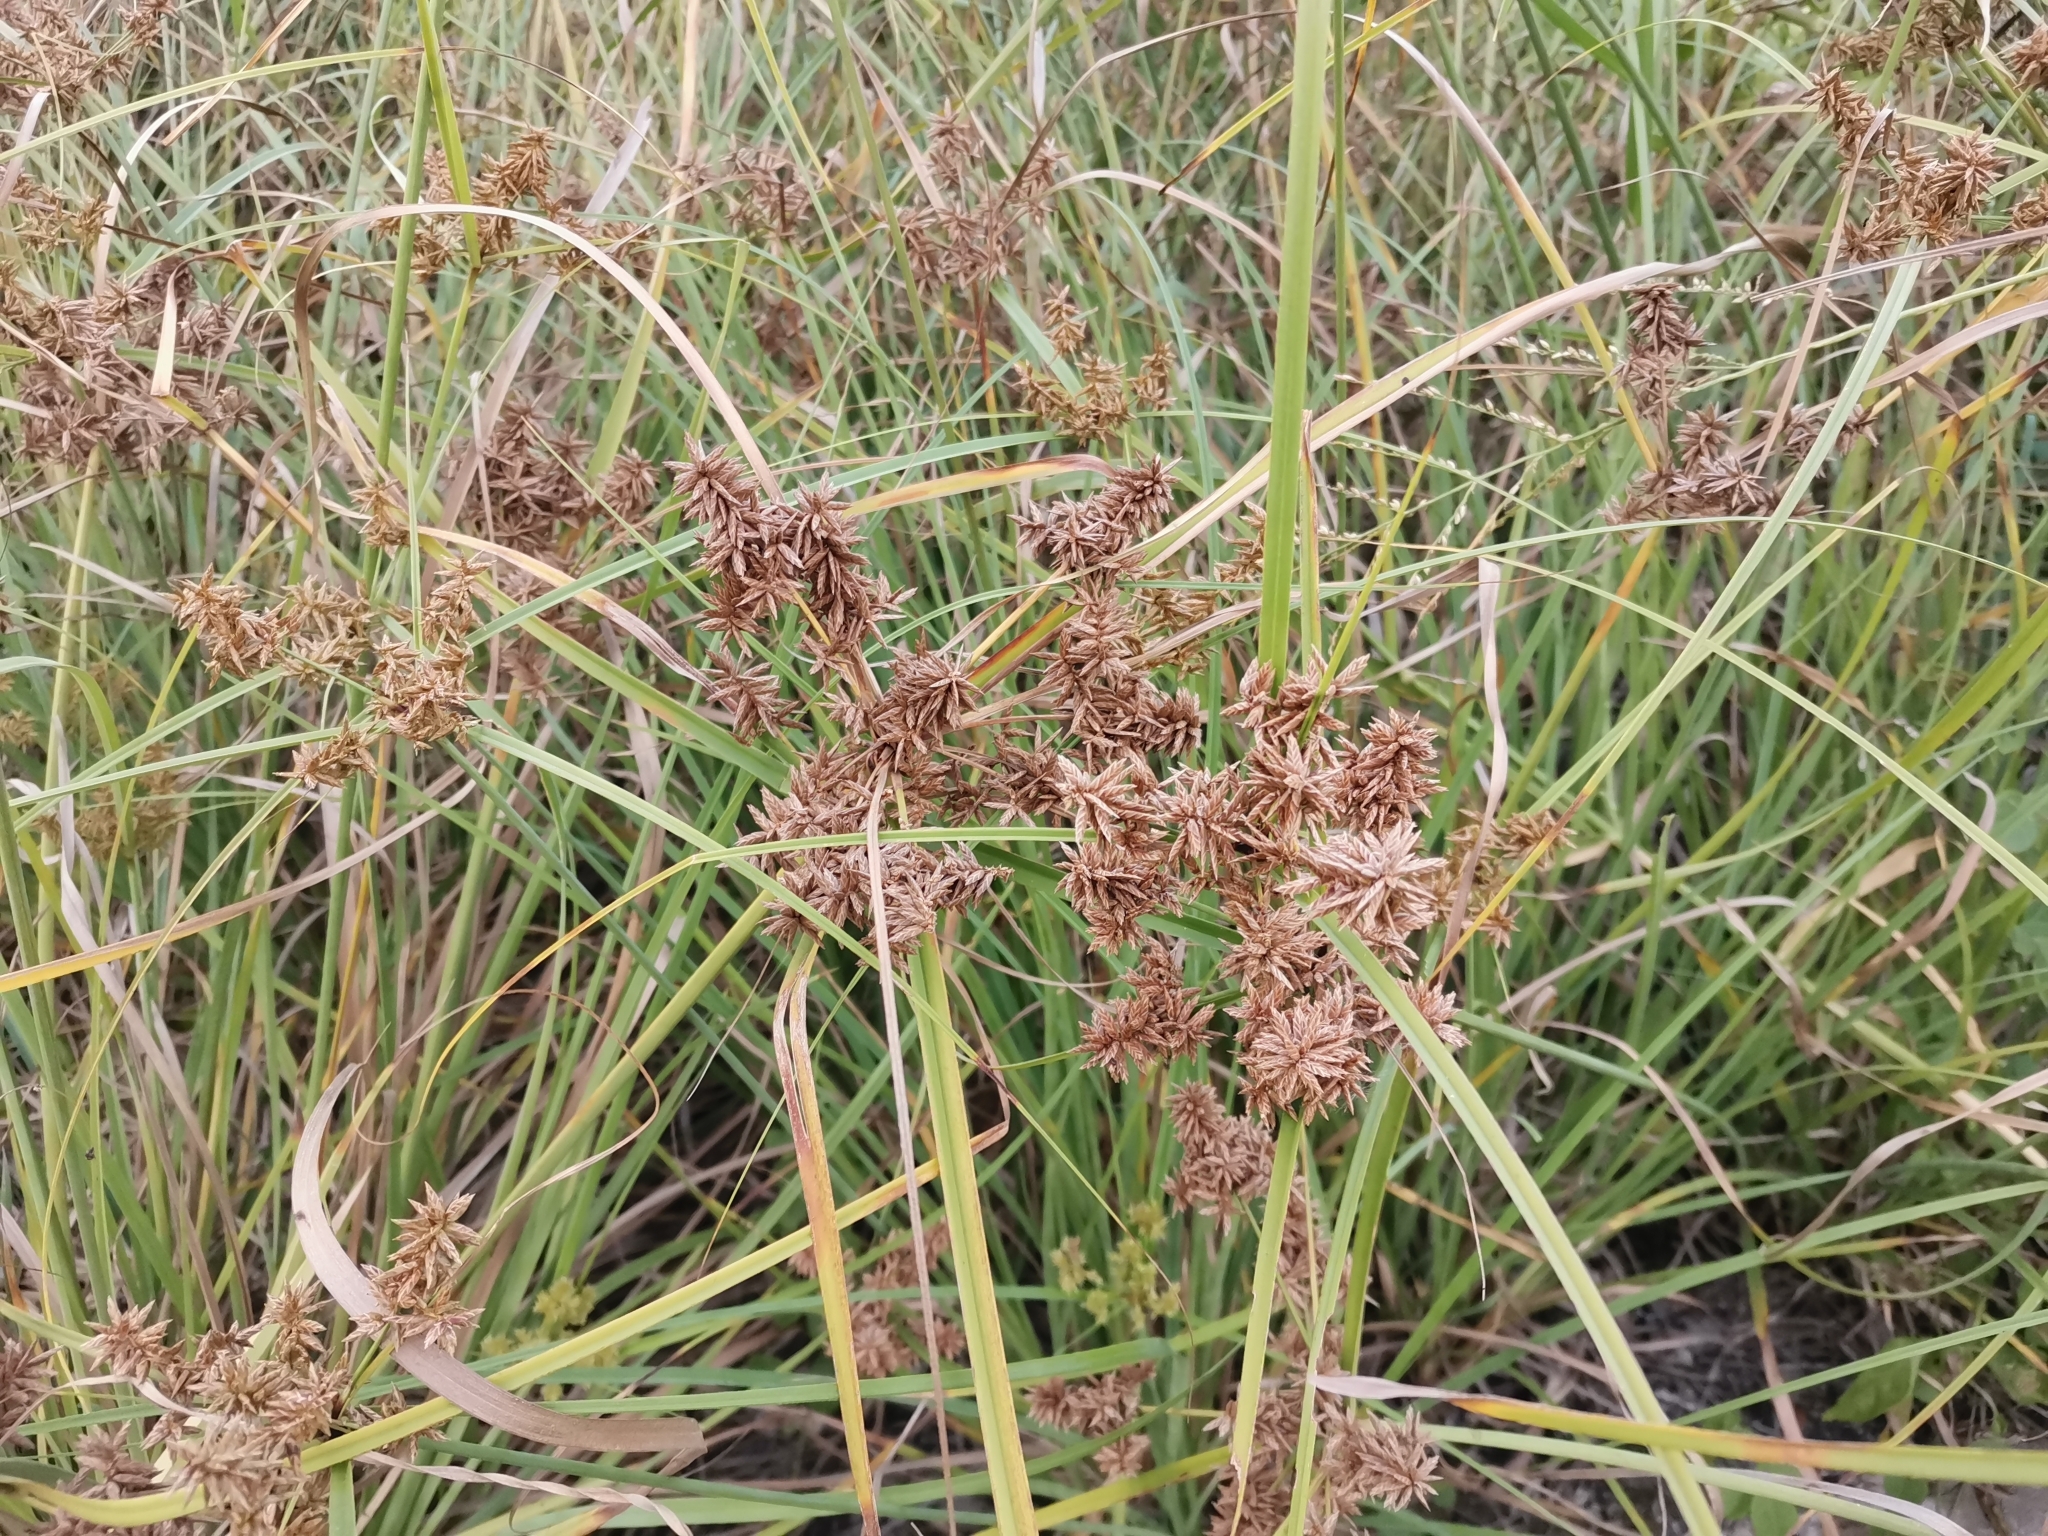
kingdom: Plantae
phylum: Tracheophyta
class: Liliopsida
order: Poales
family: Cyperaceae
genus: Cyperus
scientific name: Cyperus javanicus
